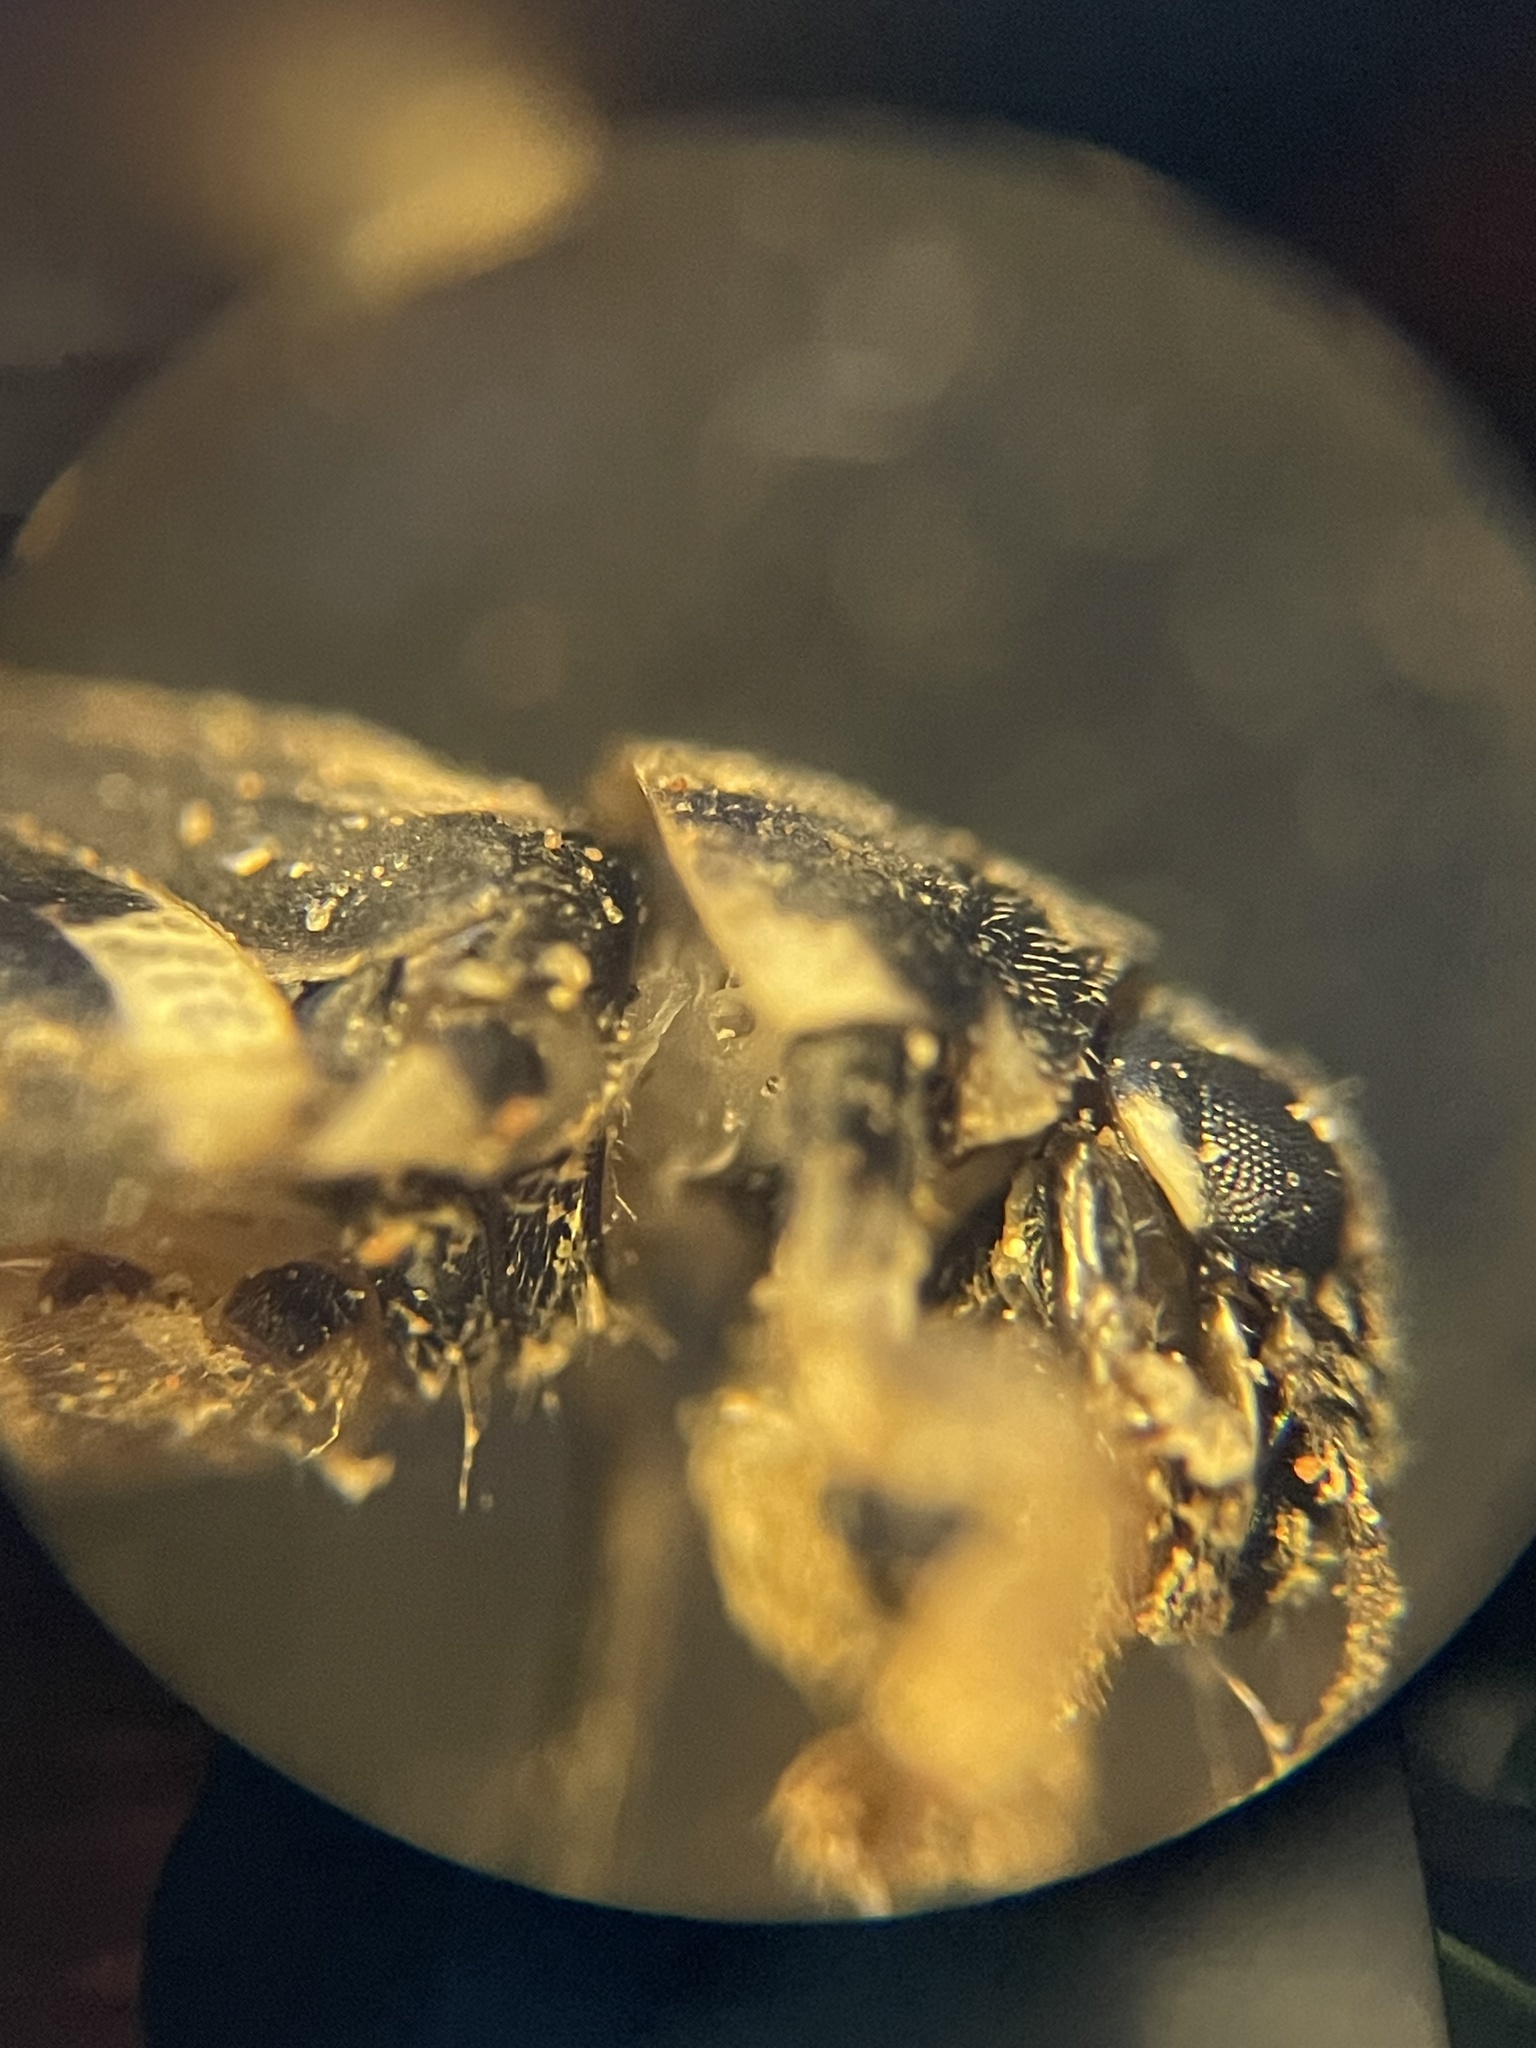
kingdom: Animalia
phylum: Arthropoda
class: Insecta
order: Orthoptera
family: Tridactylidae
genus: Ellipes
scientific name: Ellipes minuta
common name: Minute pygmy locust
